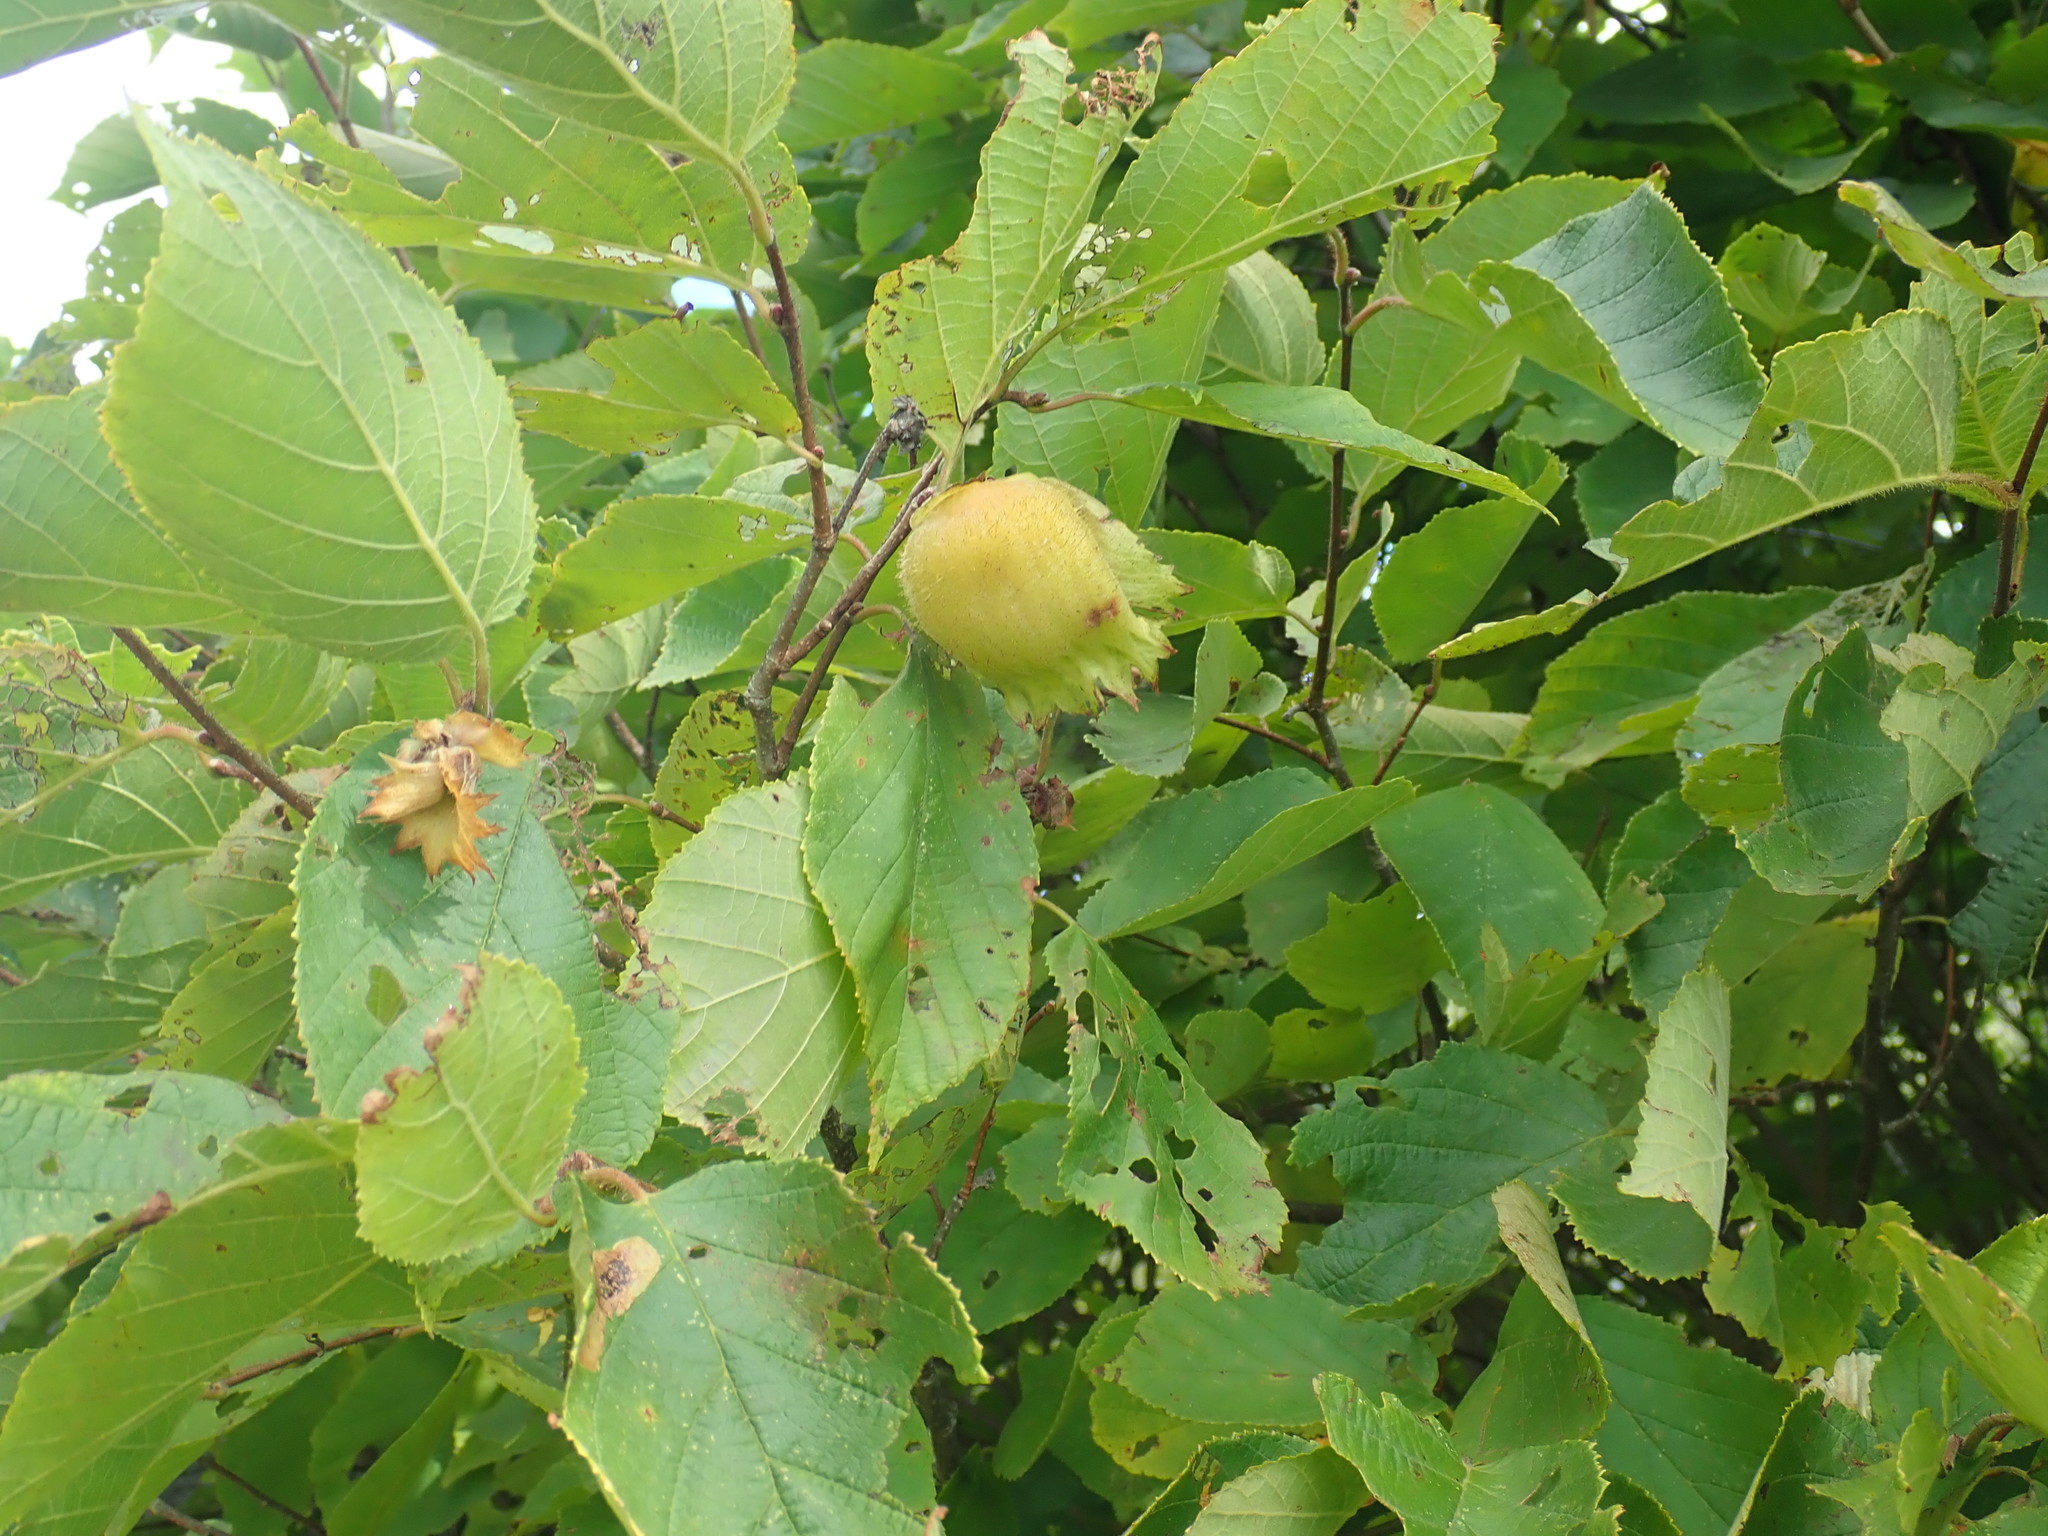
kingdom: Plantae
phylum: Tracheophyta
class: Magnoliopsida
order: Fagales
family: Betulaceae
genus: Corylus
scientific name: Corylus americana
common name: American hazel
